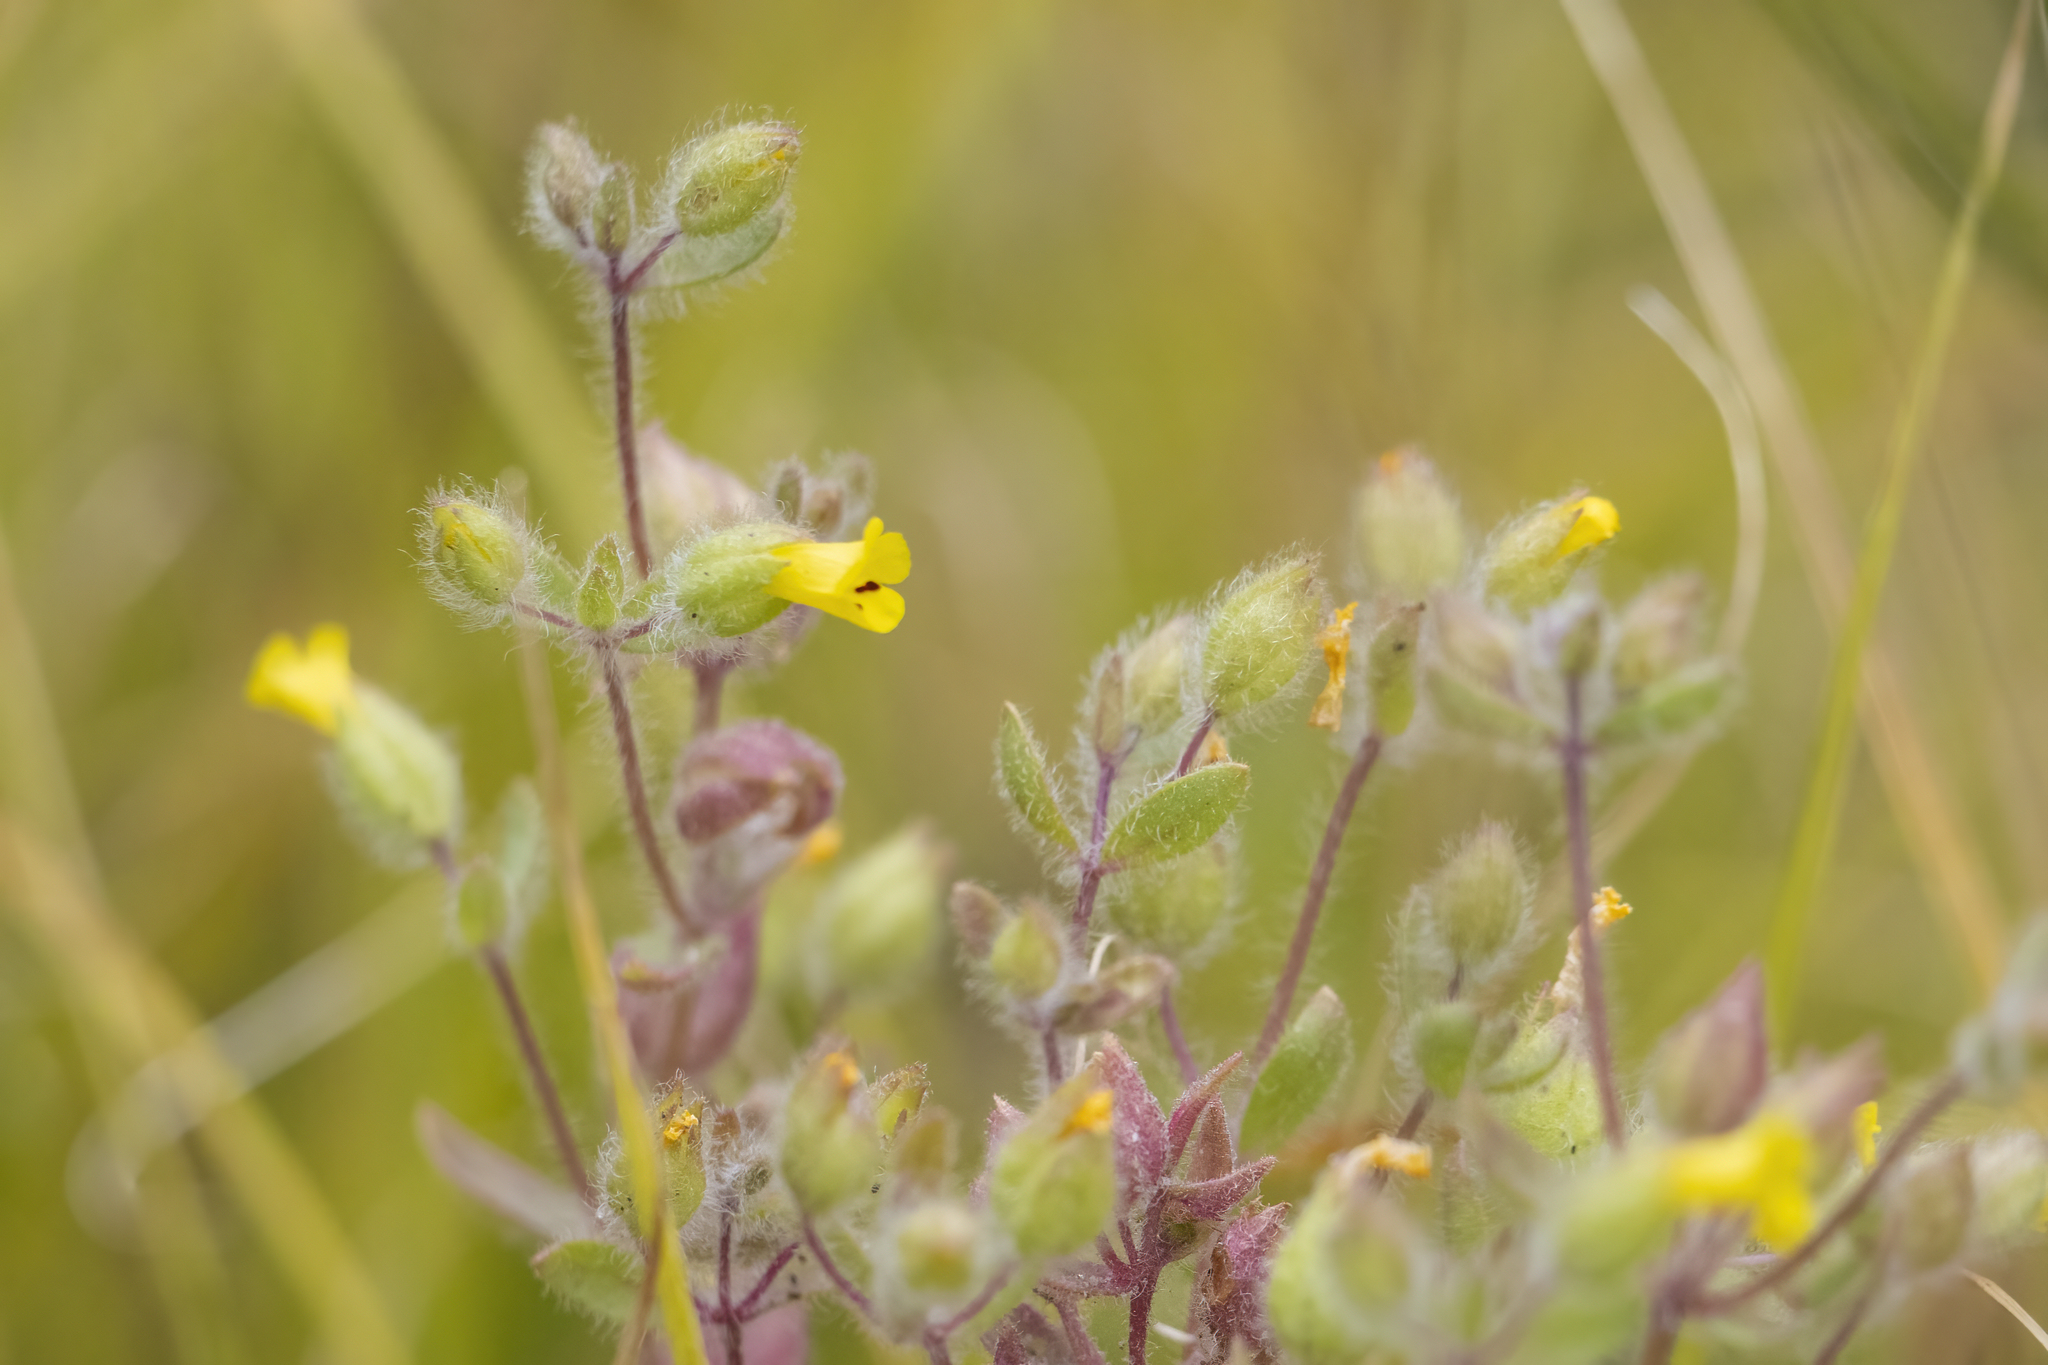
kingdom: Plantae
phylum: Tracheophyta
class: Magnoliopsida
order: Lamiales
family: Phrymaceae
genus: Mimetanthe
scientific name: Mimetanthe pilosa
